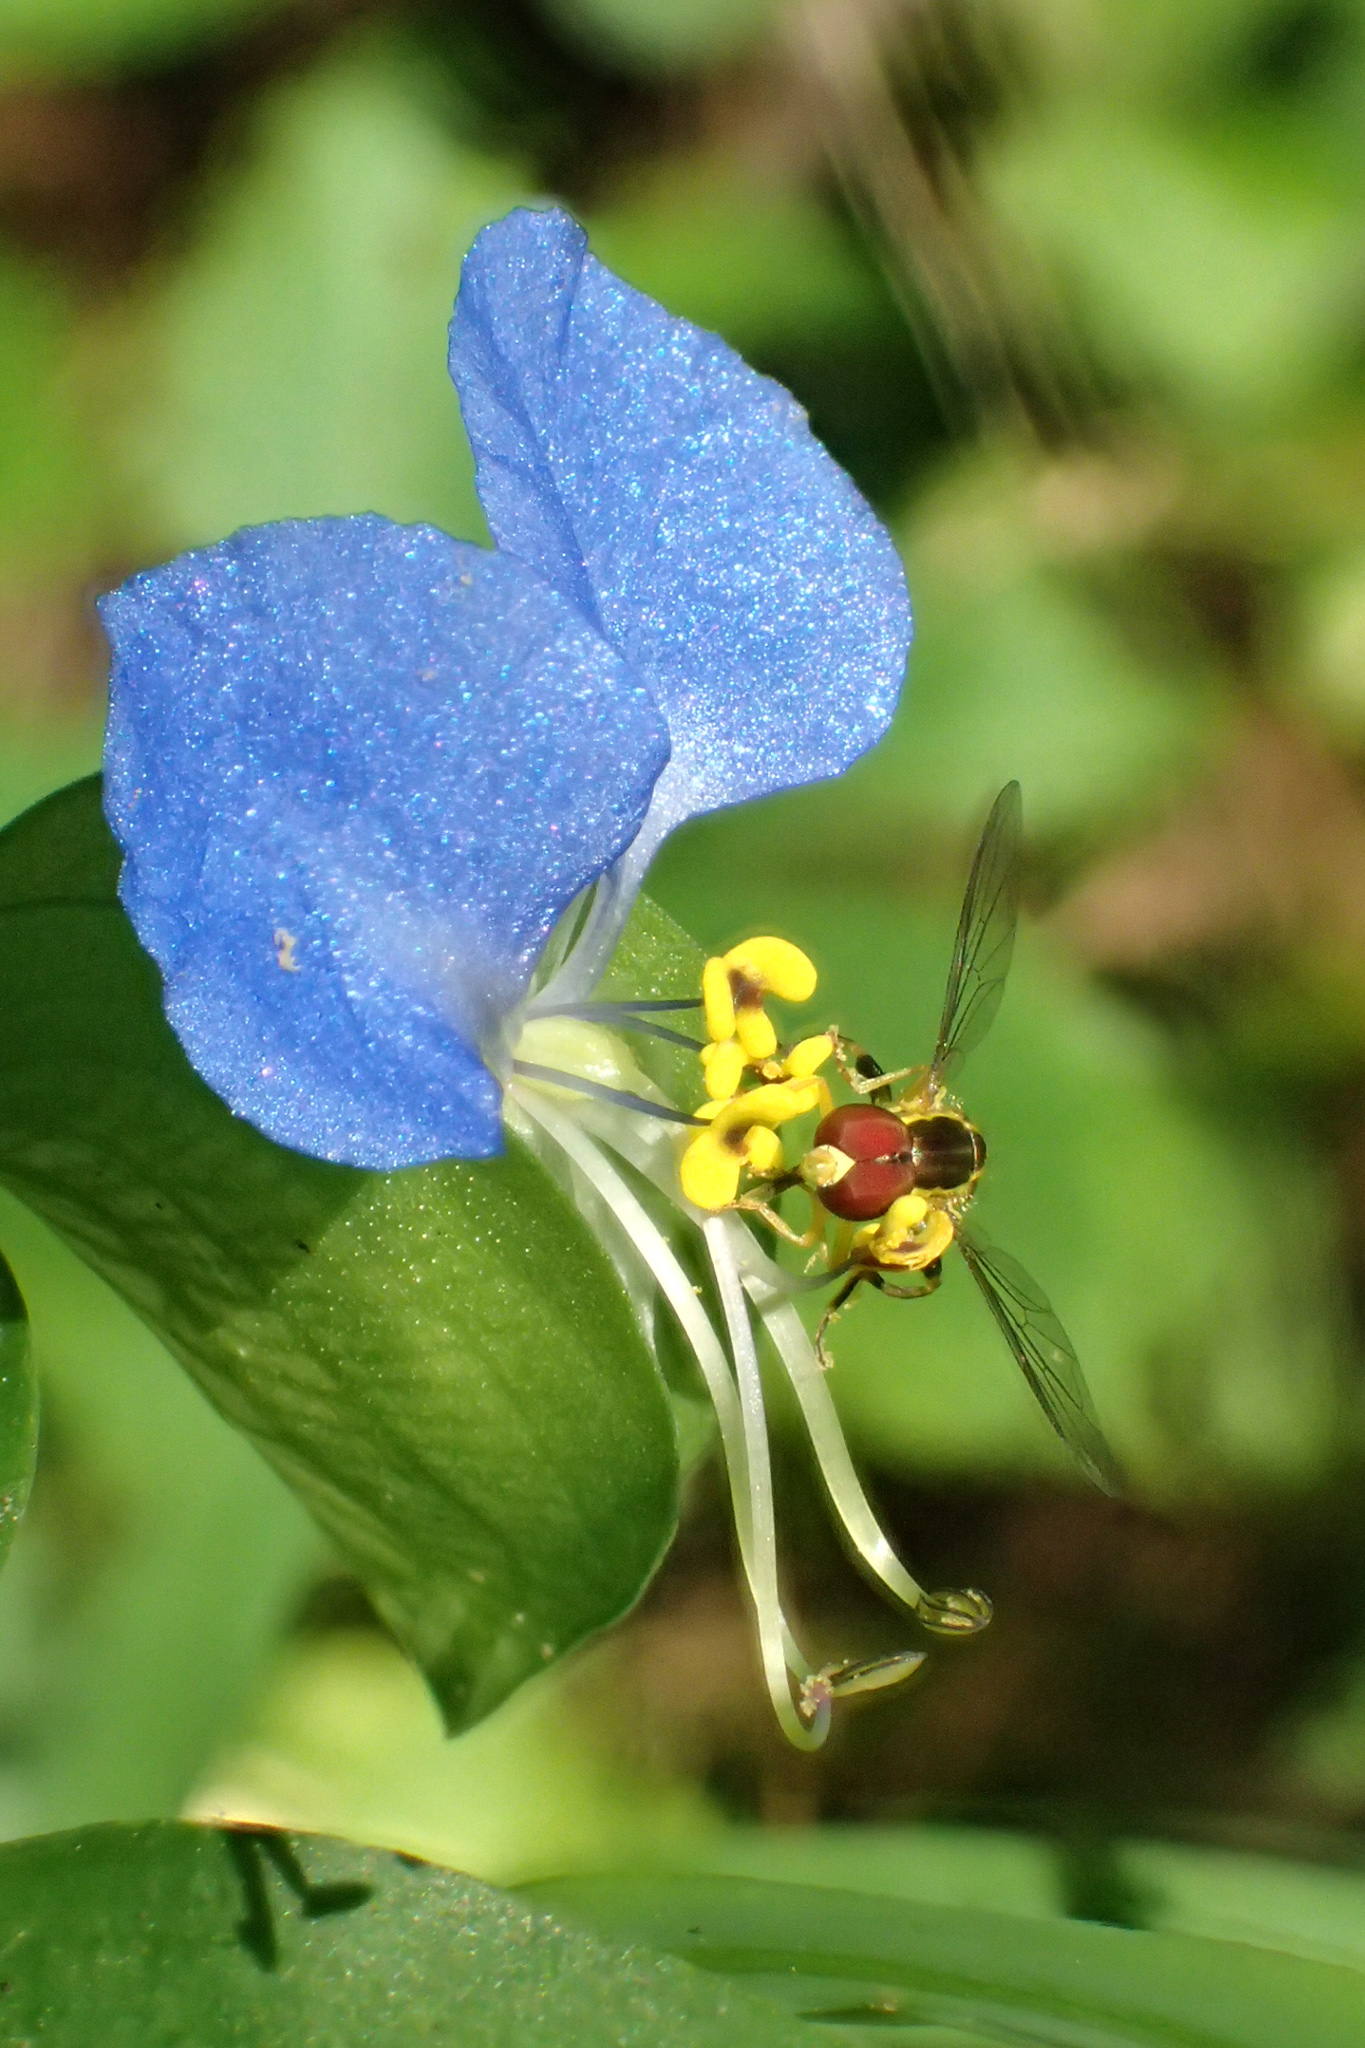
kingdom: Animalia
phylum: Arthropoda
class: Insecta
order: Diptera
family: Syrphidae
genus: Toxomerus
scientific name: Toxomerus geminatus
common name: Eastern calligrapher
